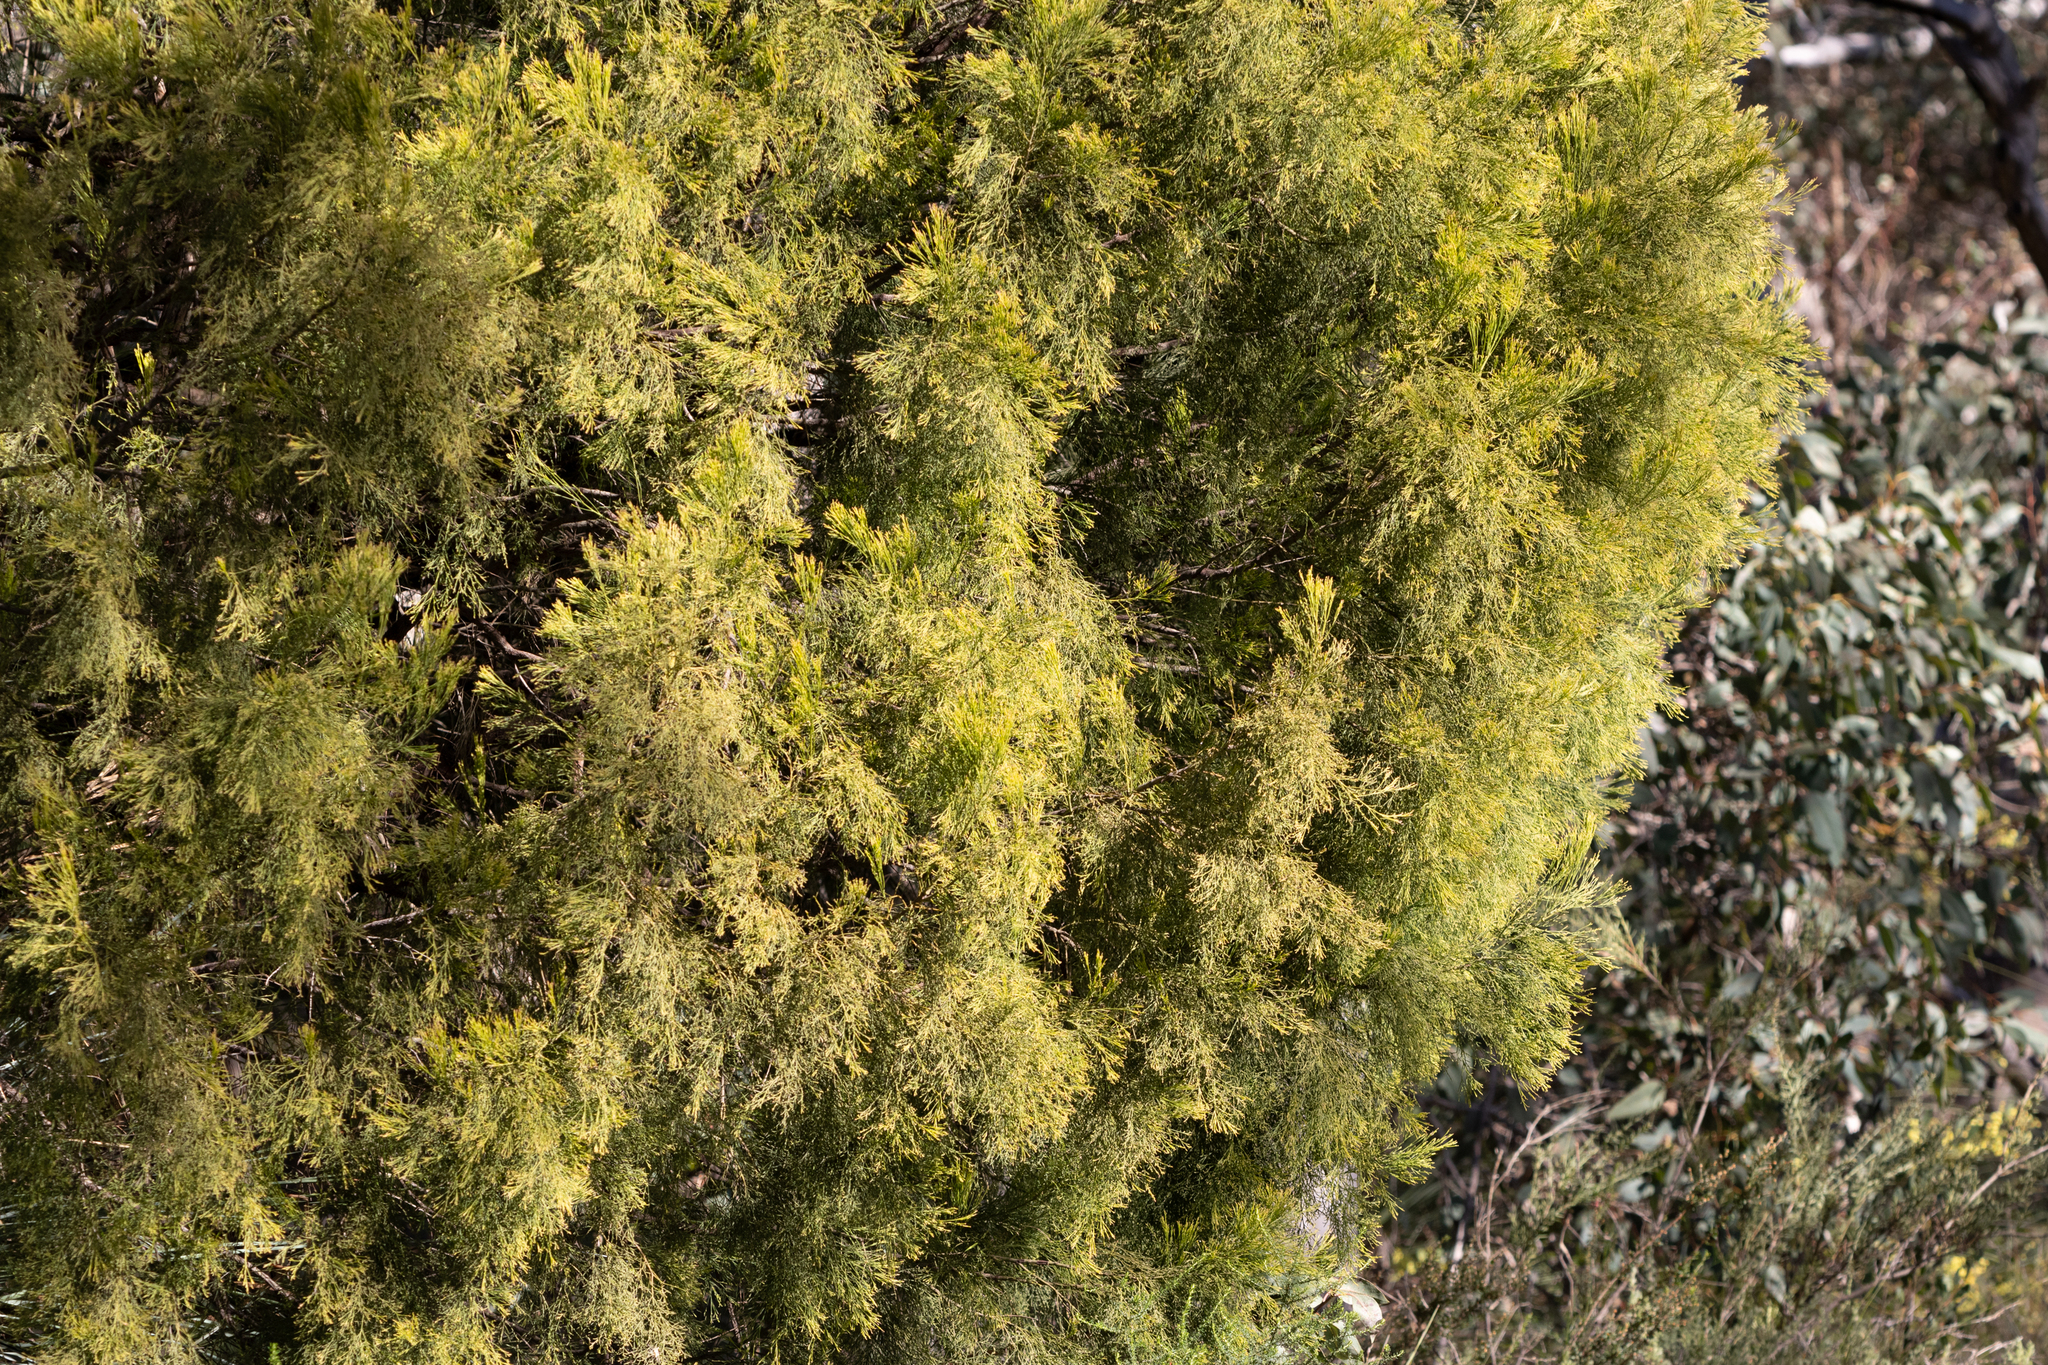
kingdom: Plantae
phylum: Tracheophyta
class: Magnoliopsida
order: Santalales
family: Santalaceae
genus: Exocarpos
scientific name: Exocarpos cupressiformis
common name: Cherry ballart
